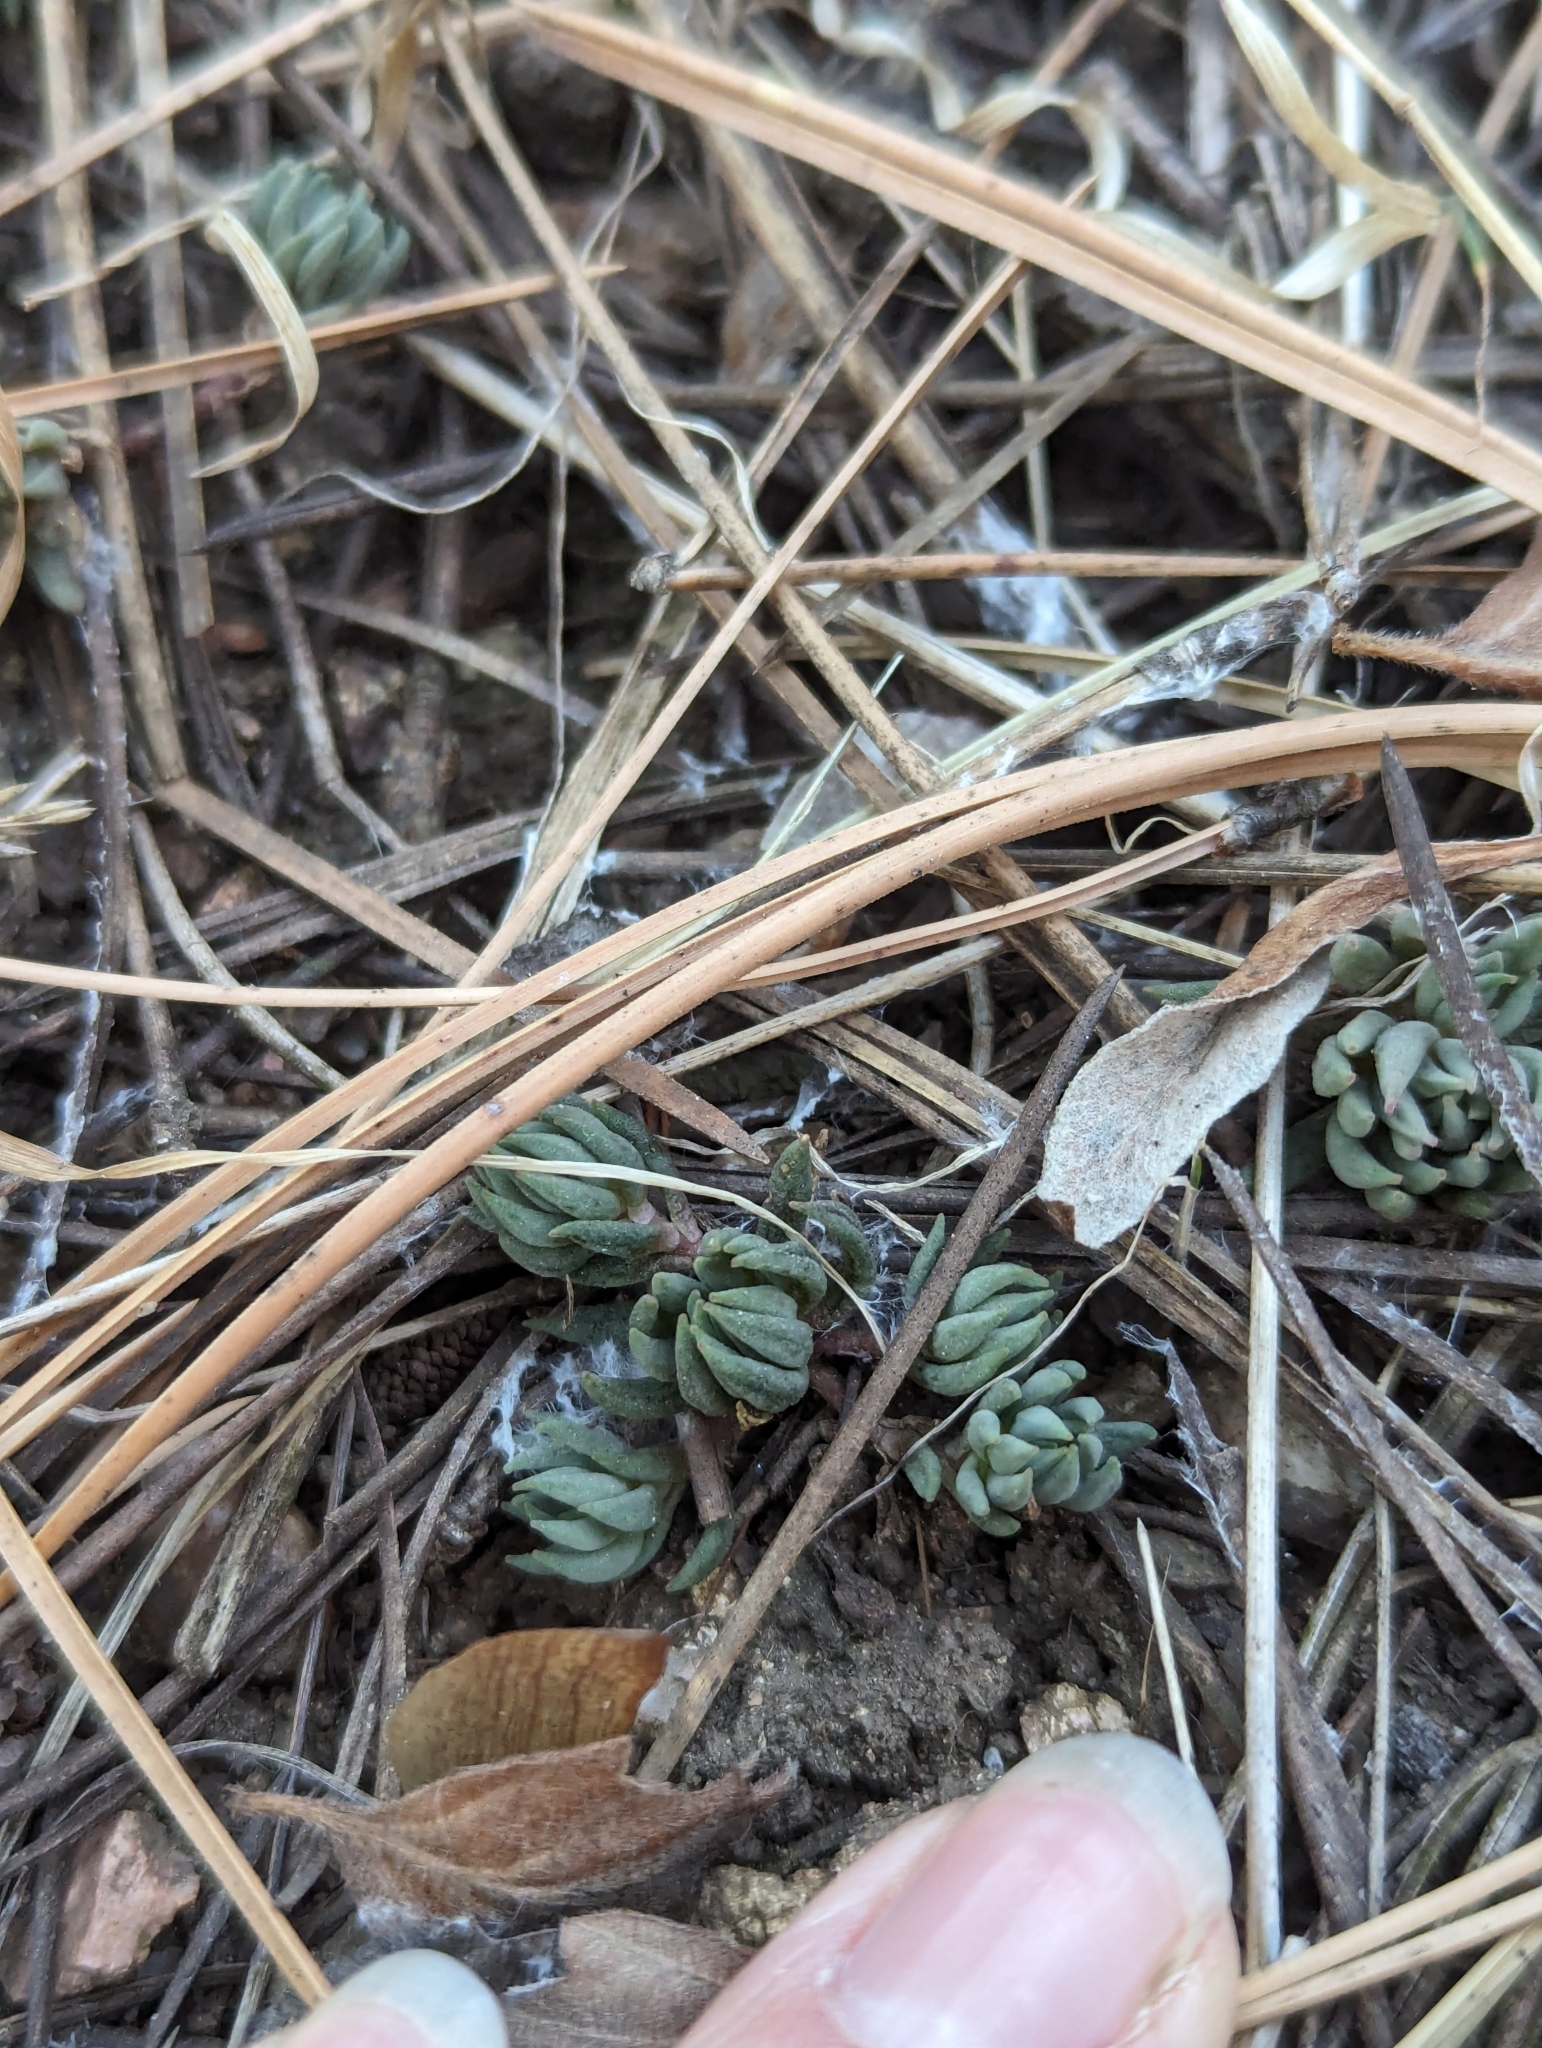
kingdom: Plantae
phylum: Tracheophyta
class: Magnoliopsida
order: Saxifragales
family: Crassulaceae
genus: Sedum
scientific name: Sedum lanceolatum
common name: Common stonecrop
